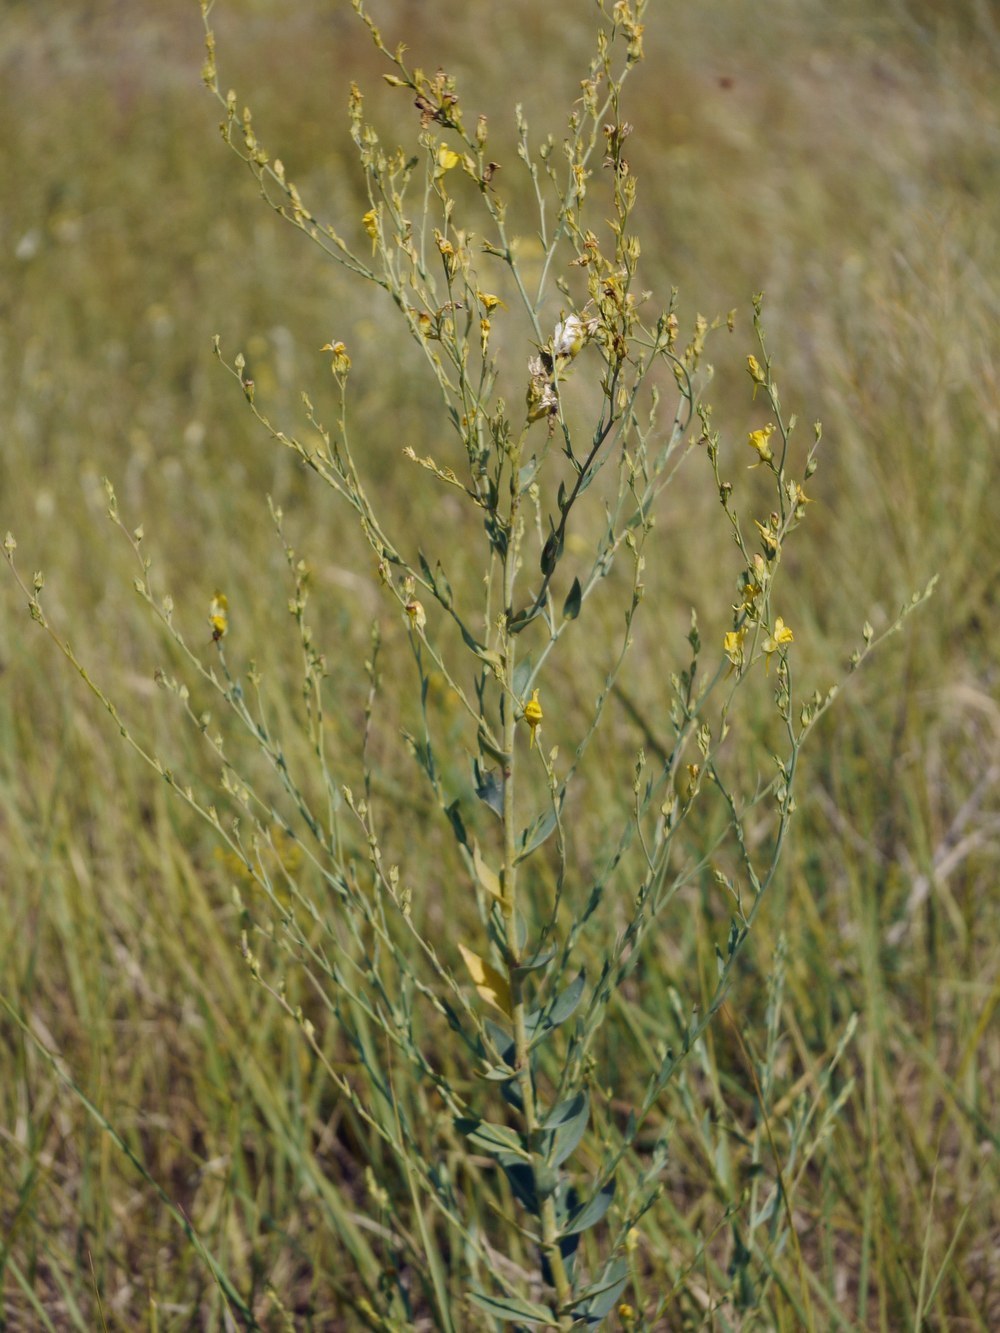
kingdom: Plantae
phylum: Tracheophyta
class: Magnoliopsida
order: Lamiales
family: Plantaginaceae
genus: Linaria
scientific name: Linaria genistifolia
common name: Broomleaf toadflax
